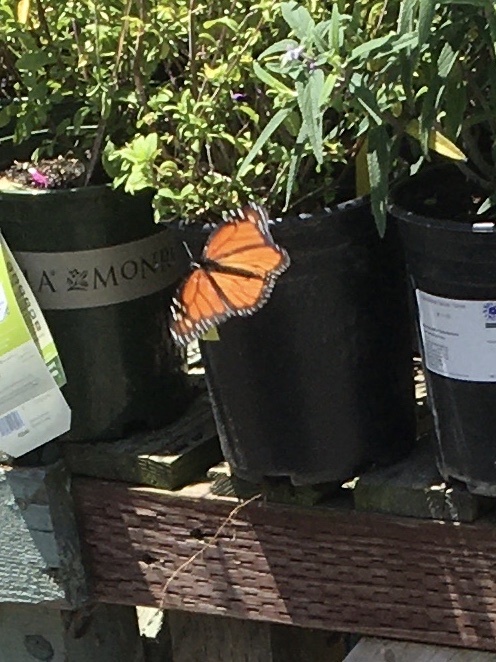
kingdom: Animalia
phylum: Arthropoda
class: Insecta
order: Lepidoptera
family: Nymphalidae
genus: Danaus
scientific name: Danaus plexippus
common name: Monarch
